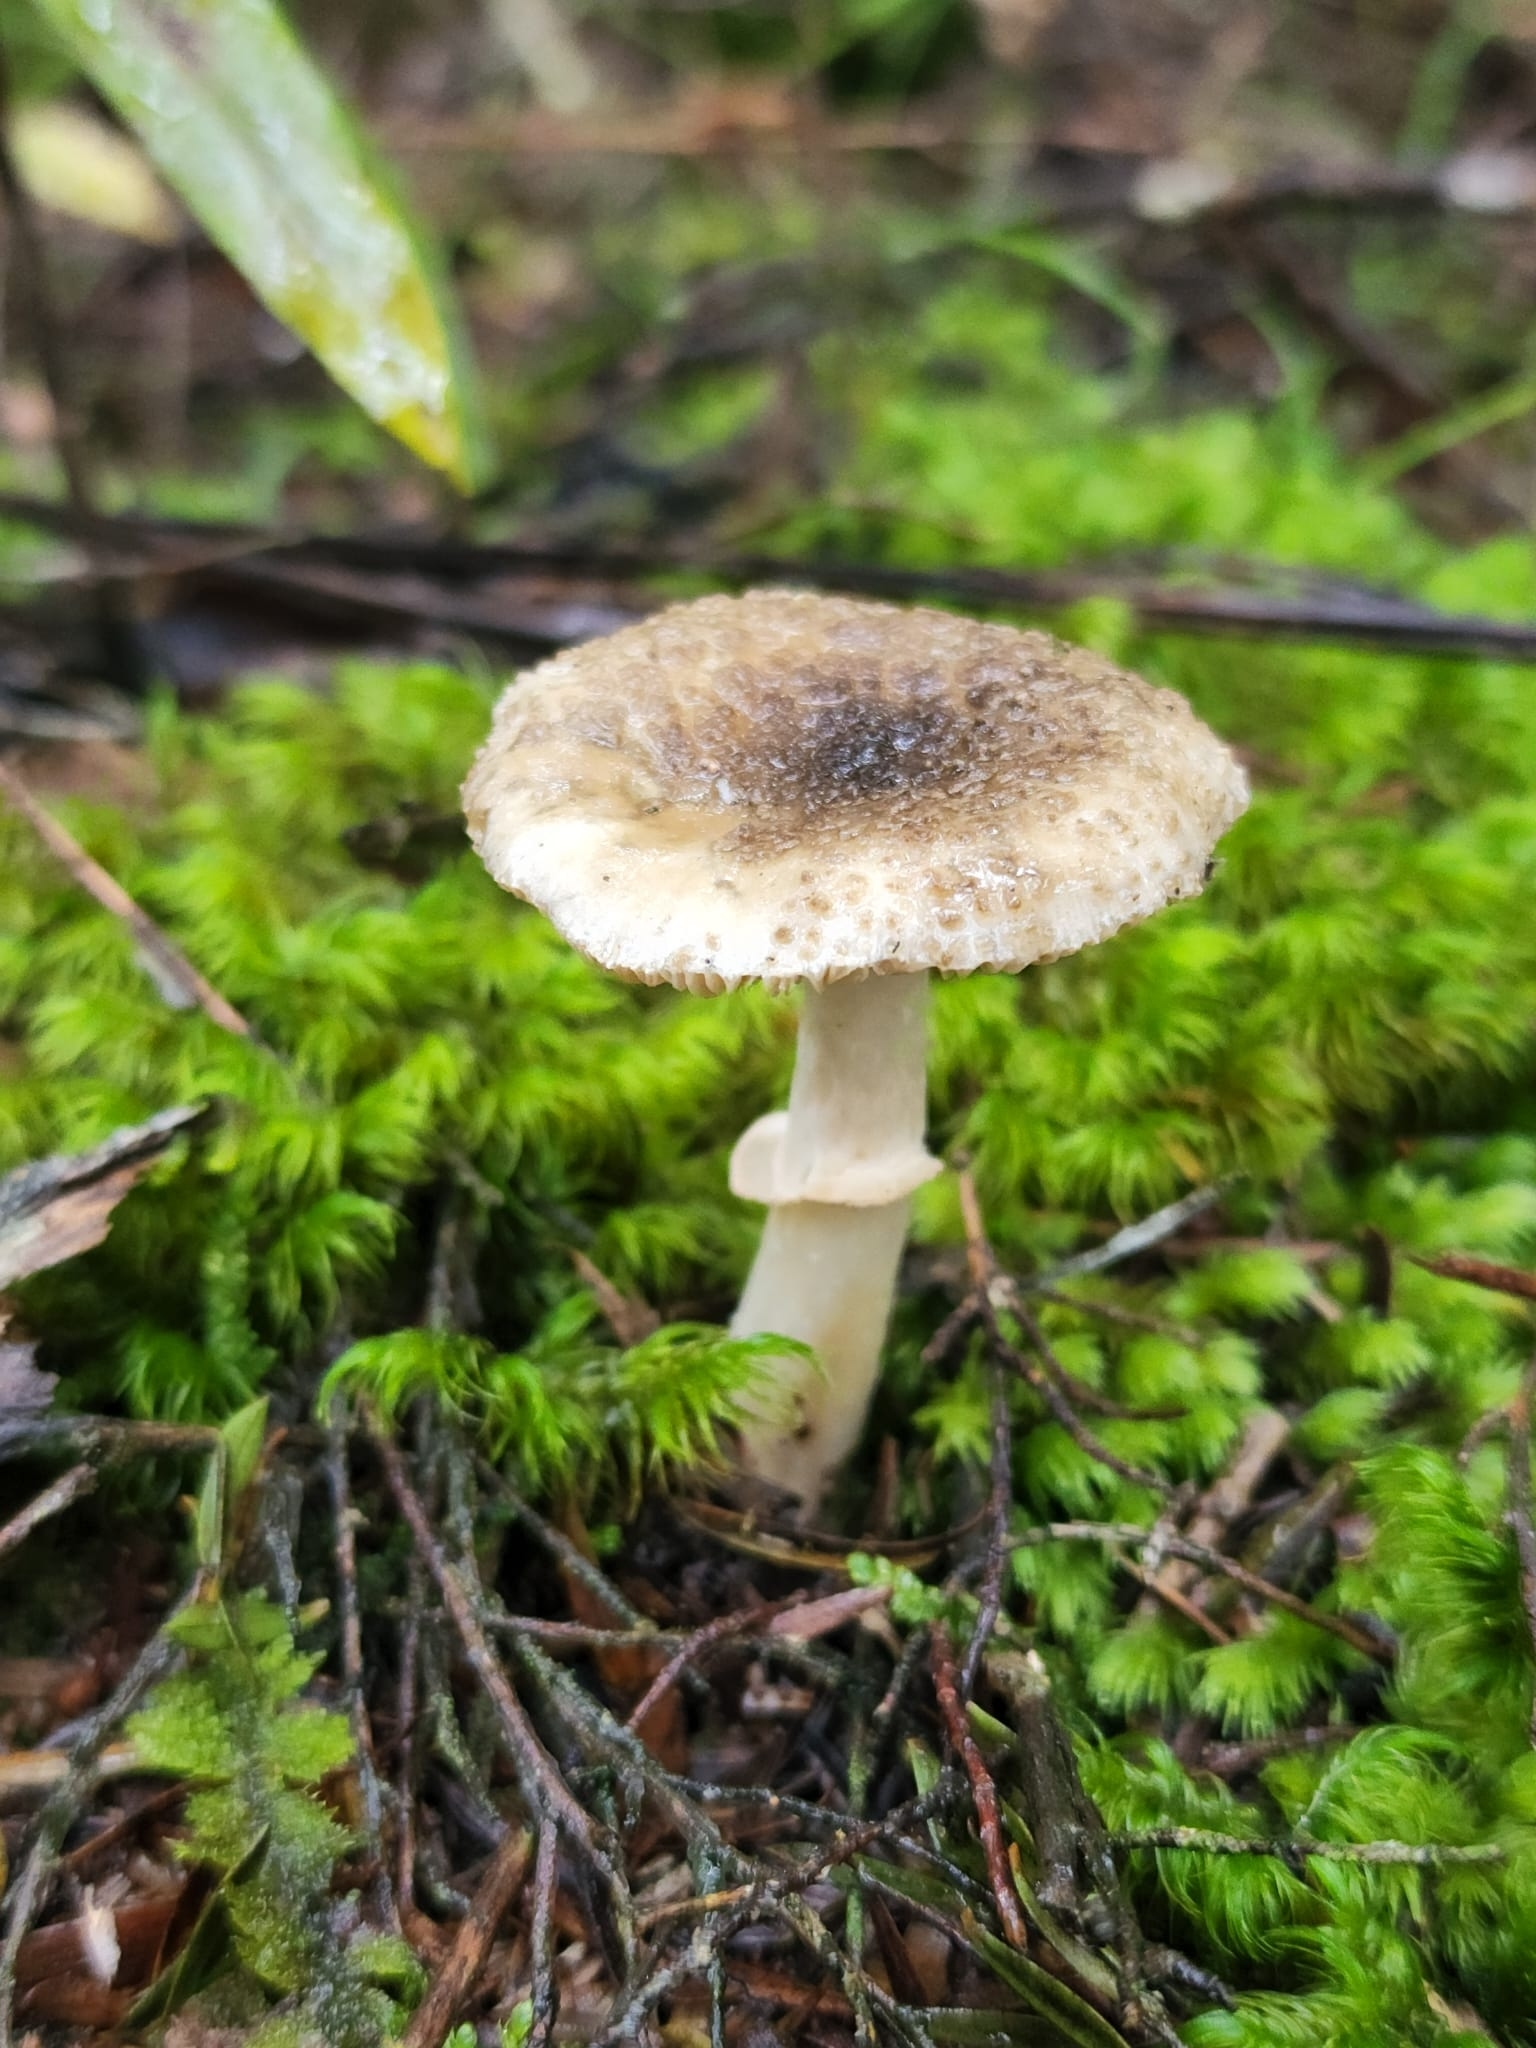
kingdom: Fungi
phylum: Basidiomycota
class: Agaricomycetes
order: Agaricales
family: Amanitaceae
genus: Amanita
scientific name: Amanita australis
